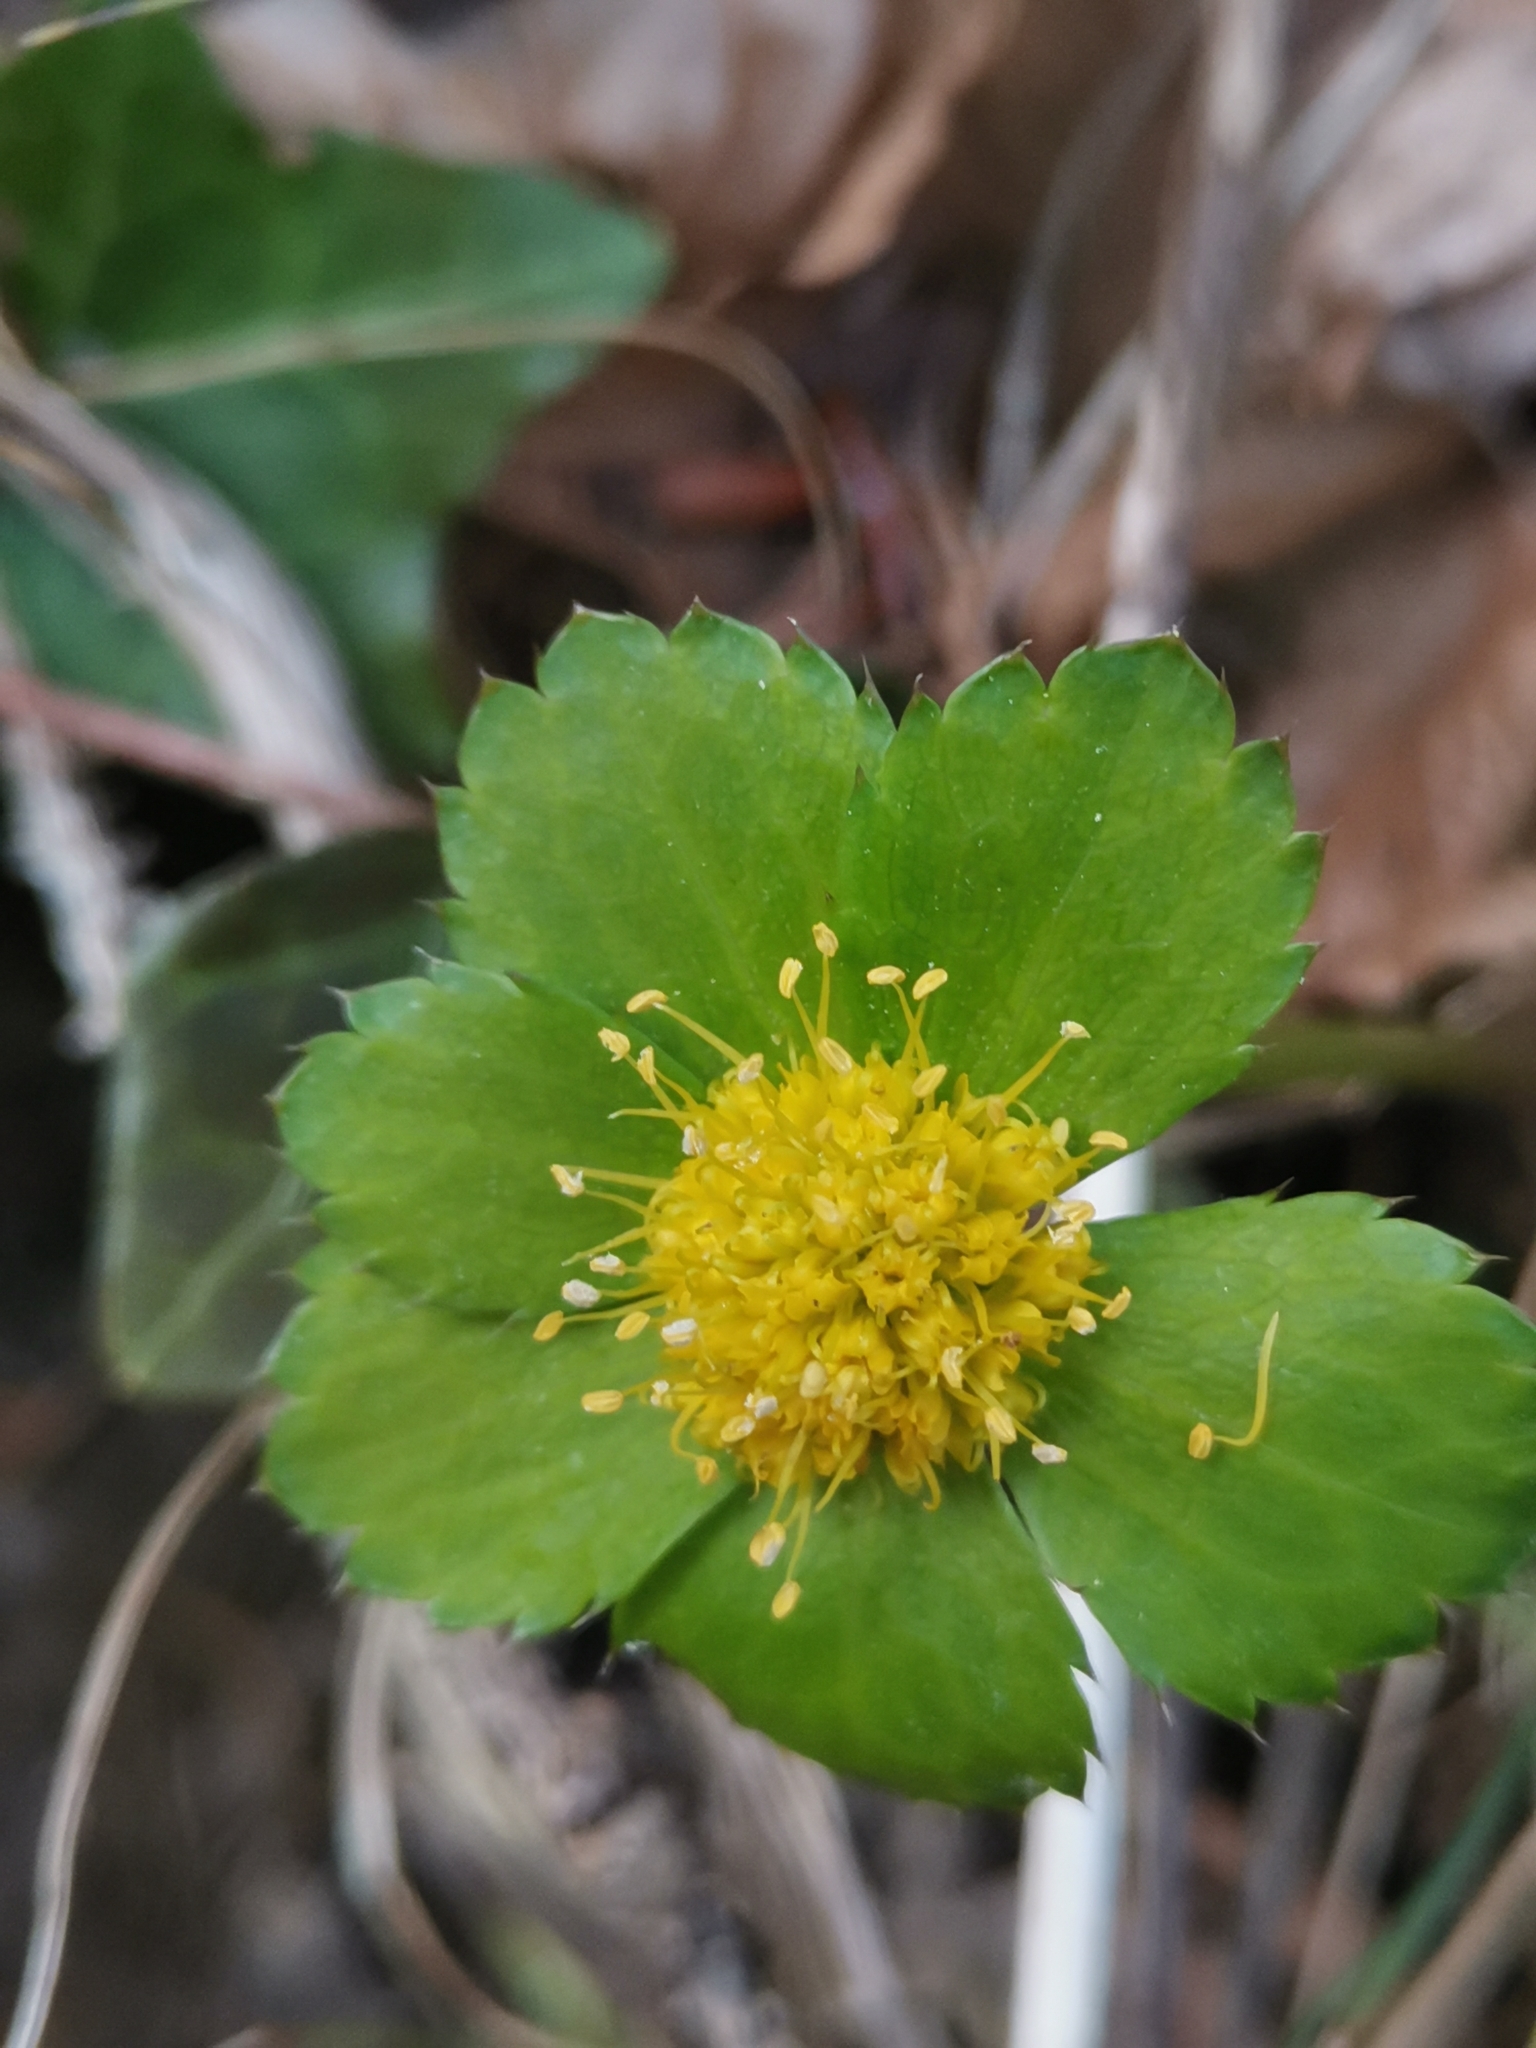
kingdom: Plantae
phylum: Tracheophyta
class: Magnoliopsida
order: Apiales
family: Apiaceae
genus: Sanicula
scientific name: Sanicula epipactis
